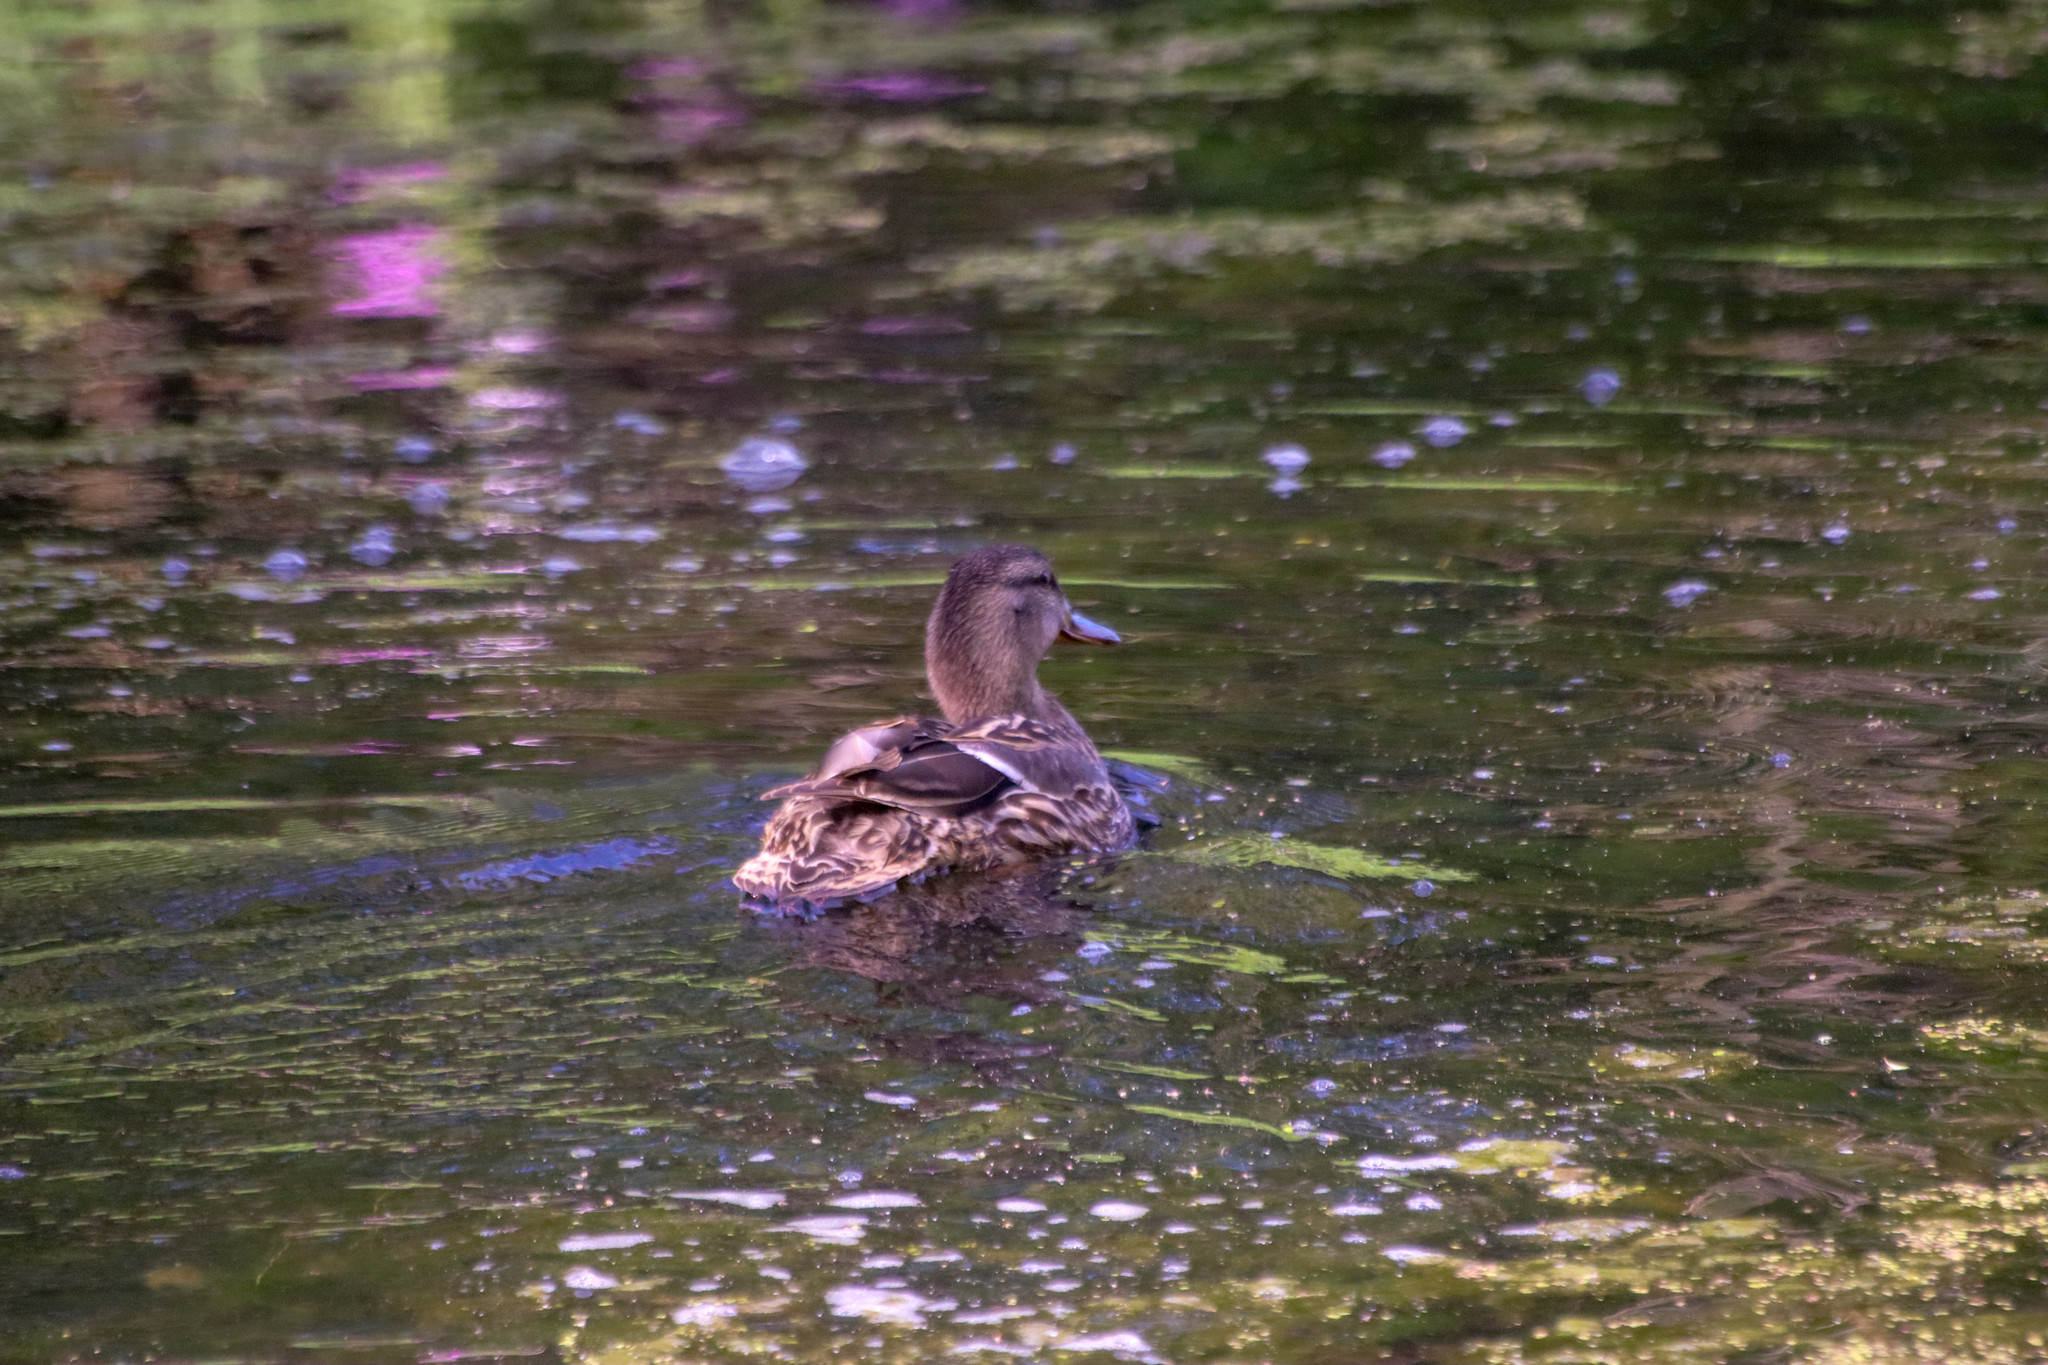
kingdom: Animalia
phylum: Chordata
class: Aves
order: Anseriformes
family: Anatidae
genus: Anas
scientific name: Anas platyrhynchos
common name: Mallard
